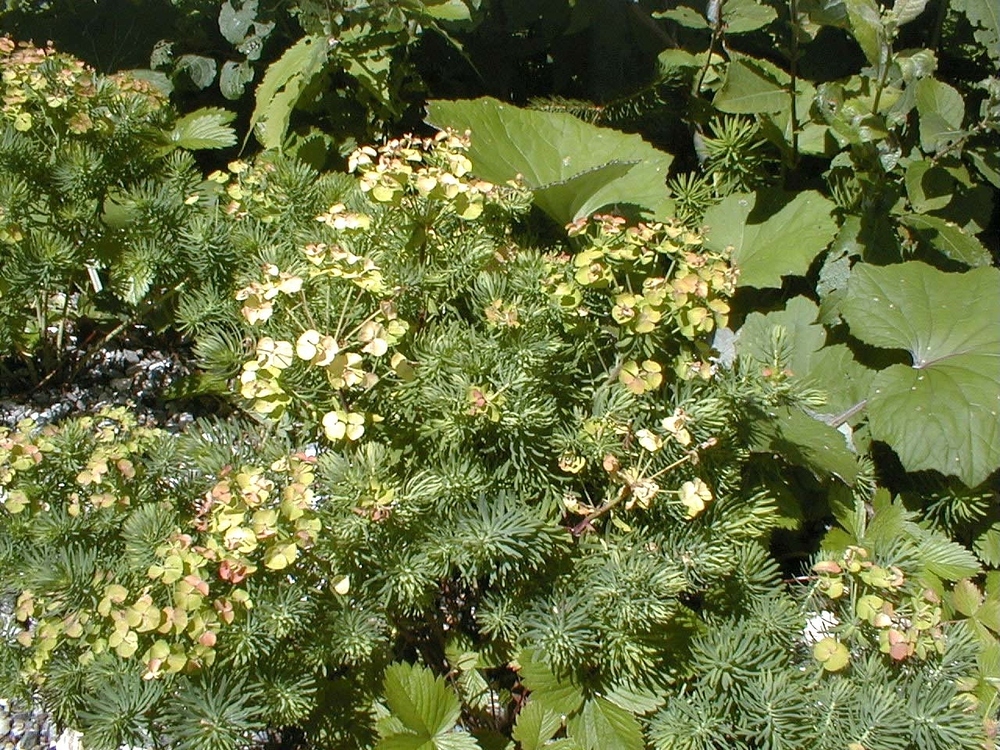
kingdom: Plantae
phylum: Tracheophyta
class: Magnoliopsida
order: Malpighiales
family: Euphorbiaceae
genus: Euphorbia
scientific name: Euphorbia cyparissias
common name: Cypress spurge
